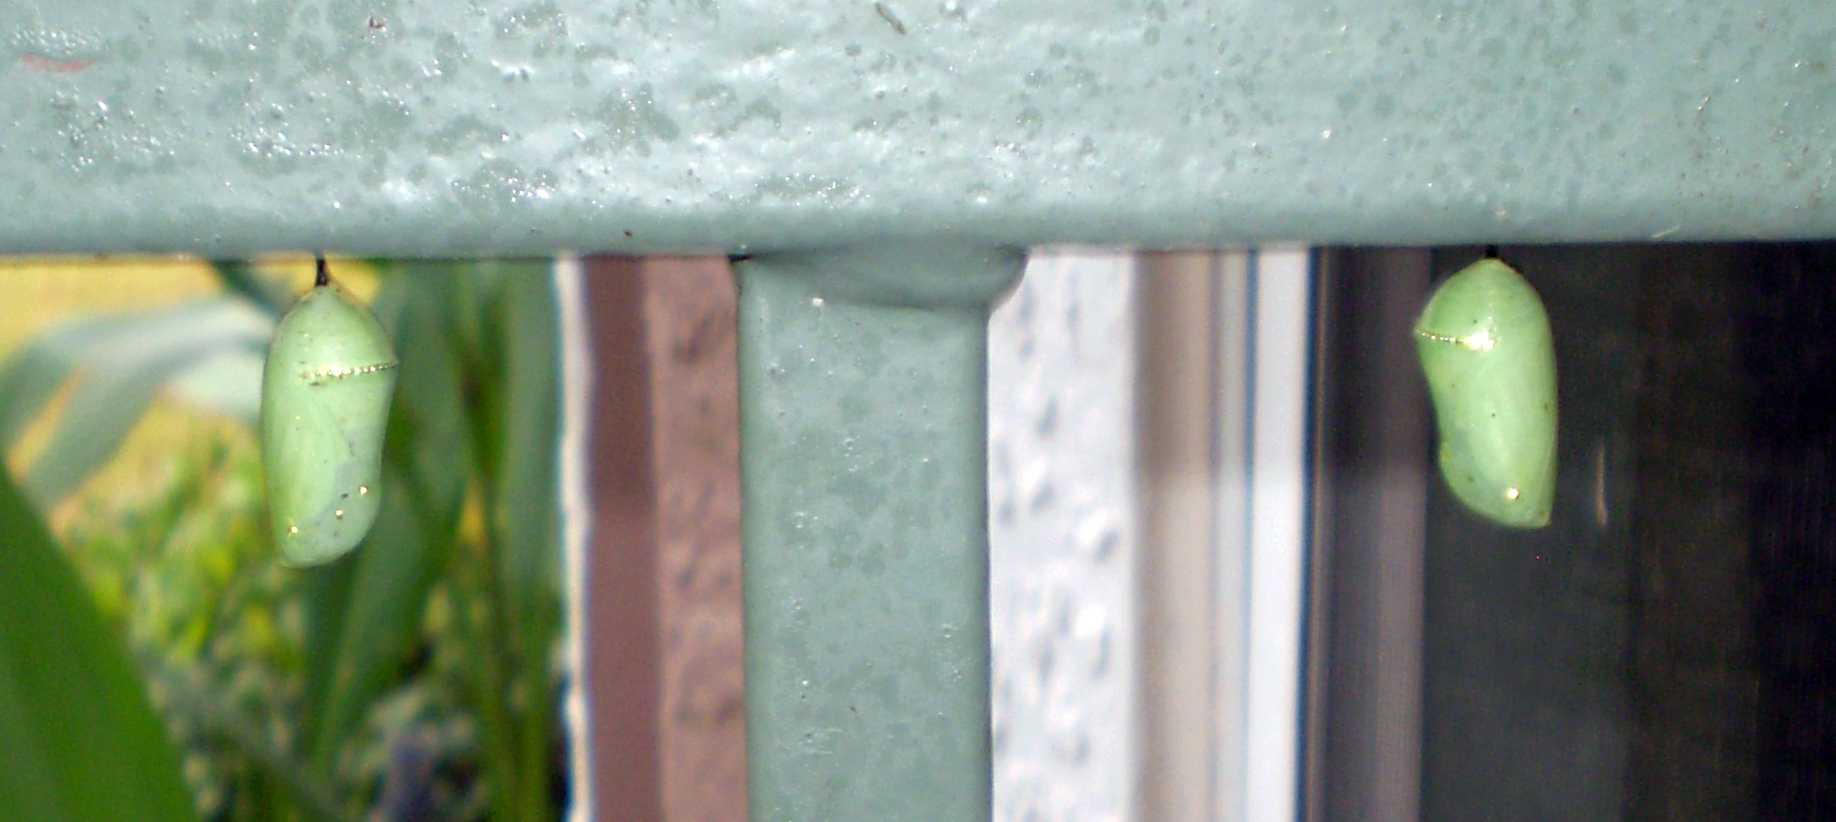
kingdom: Animalia
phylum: Arthropoda
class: Insecta
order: Lepidoptera
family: Nymphalidae
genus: Danaus
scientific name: Danaus plexippus
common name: Monarch
